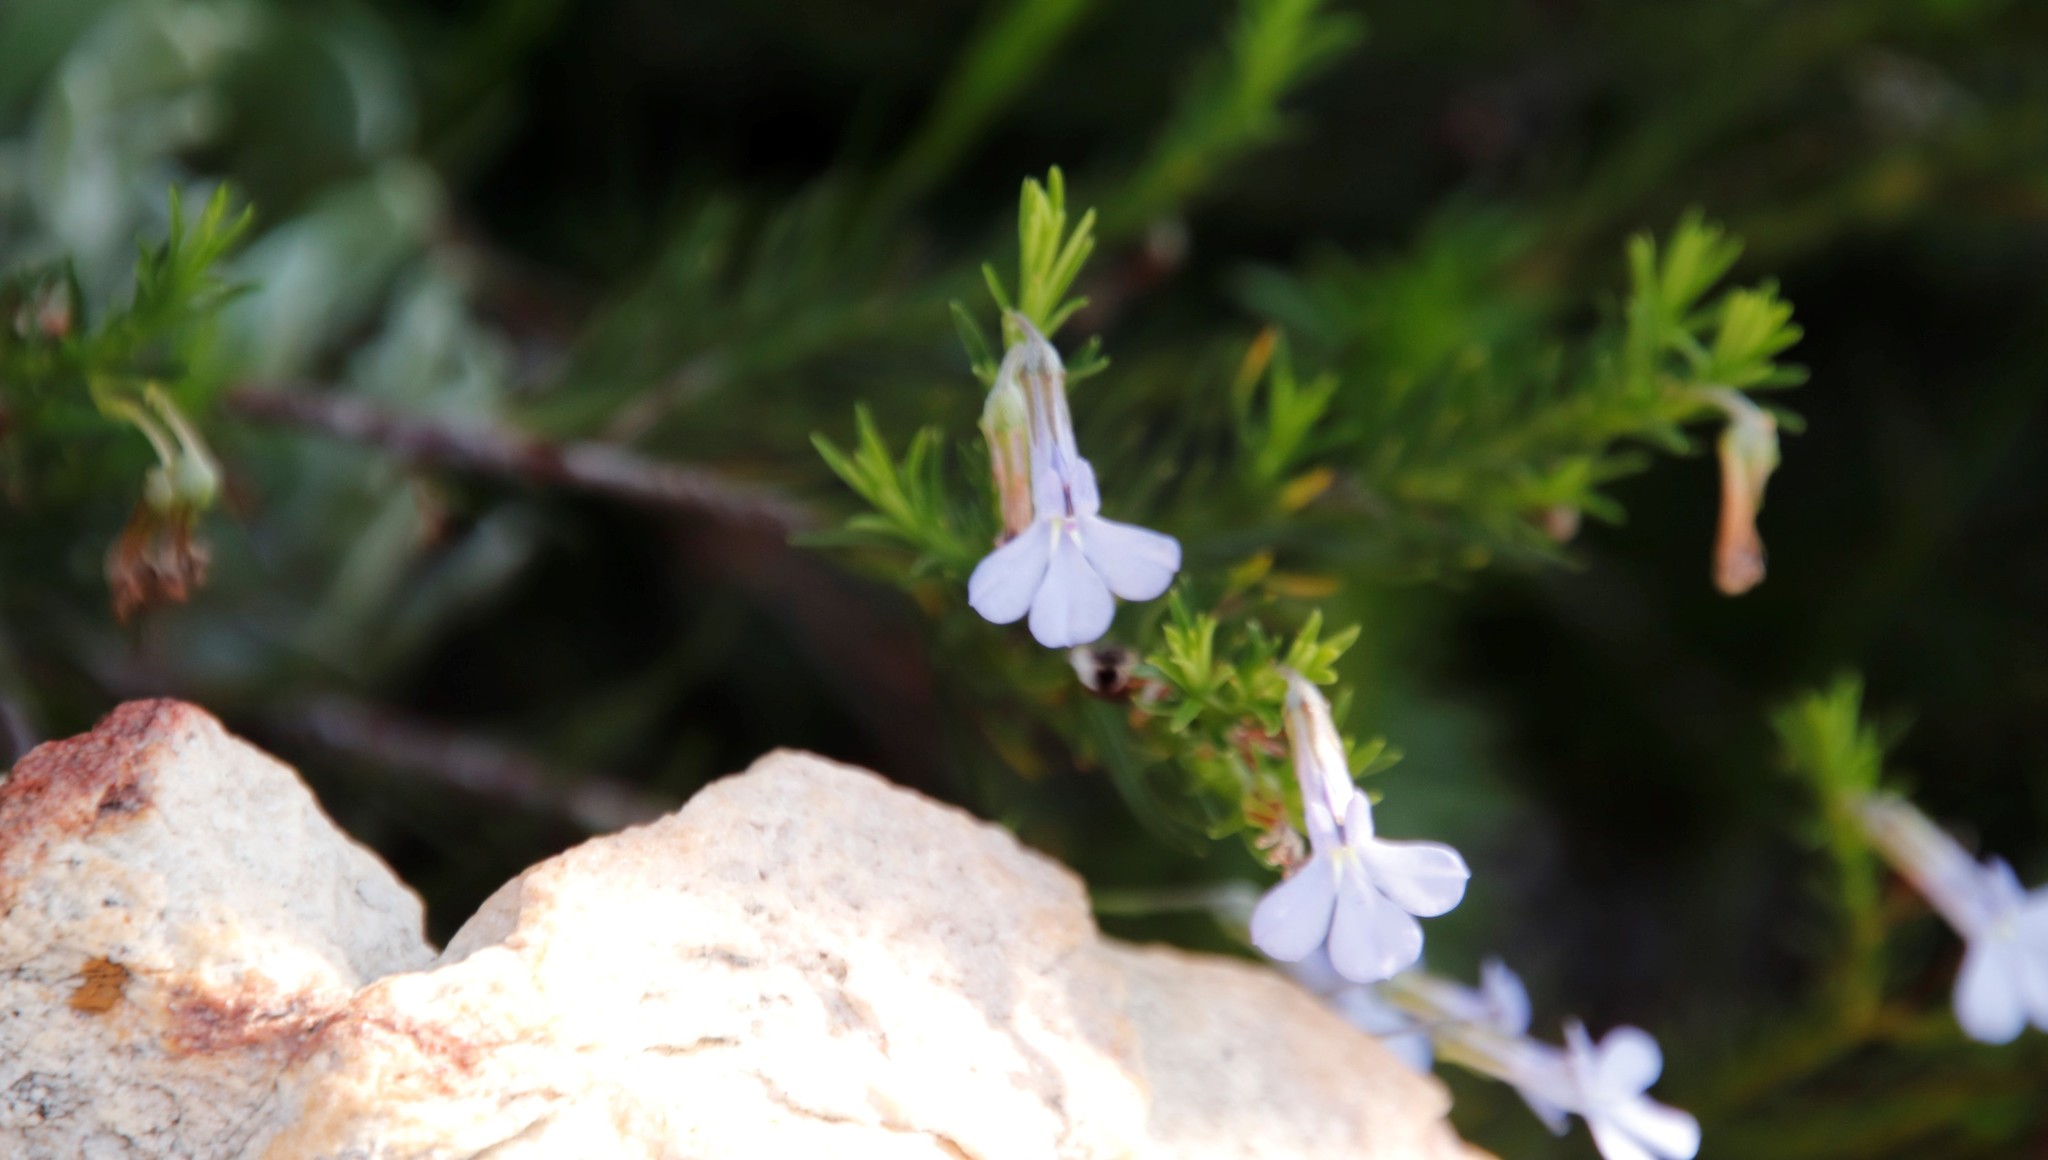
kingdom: Plantae
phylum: Tracheophyta
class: Magnoliopsida
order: Asterales
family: Campanulaceae
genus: Lobelia
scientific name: Lobelia pinifolia
